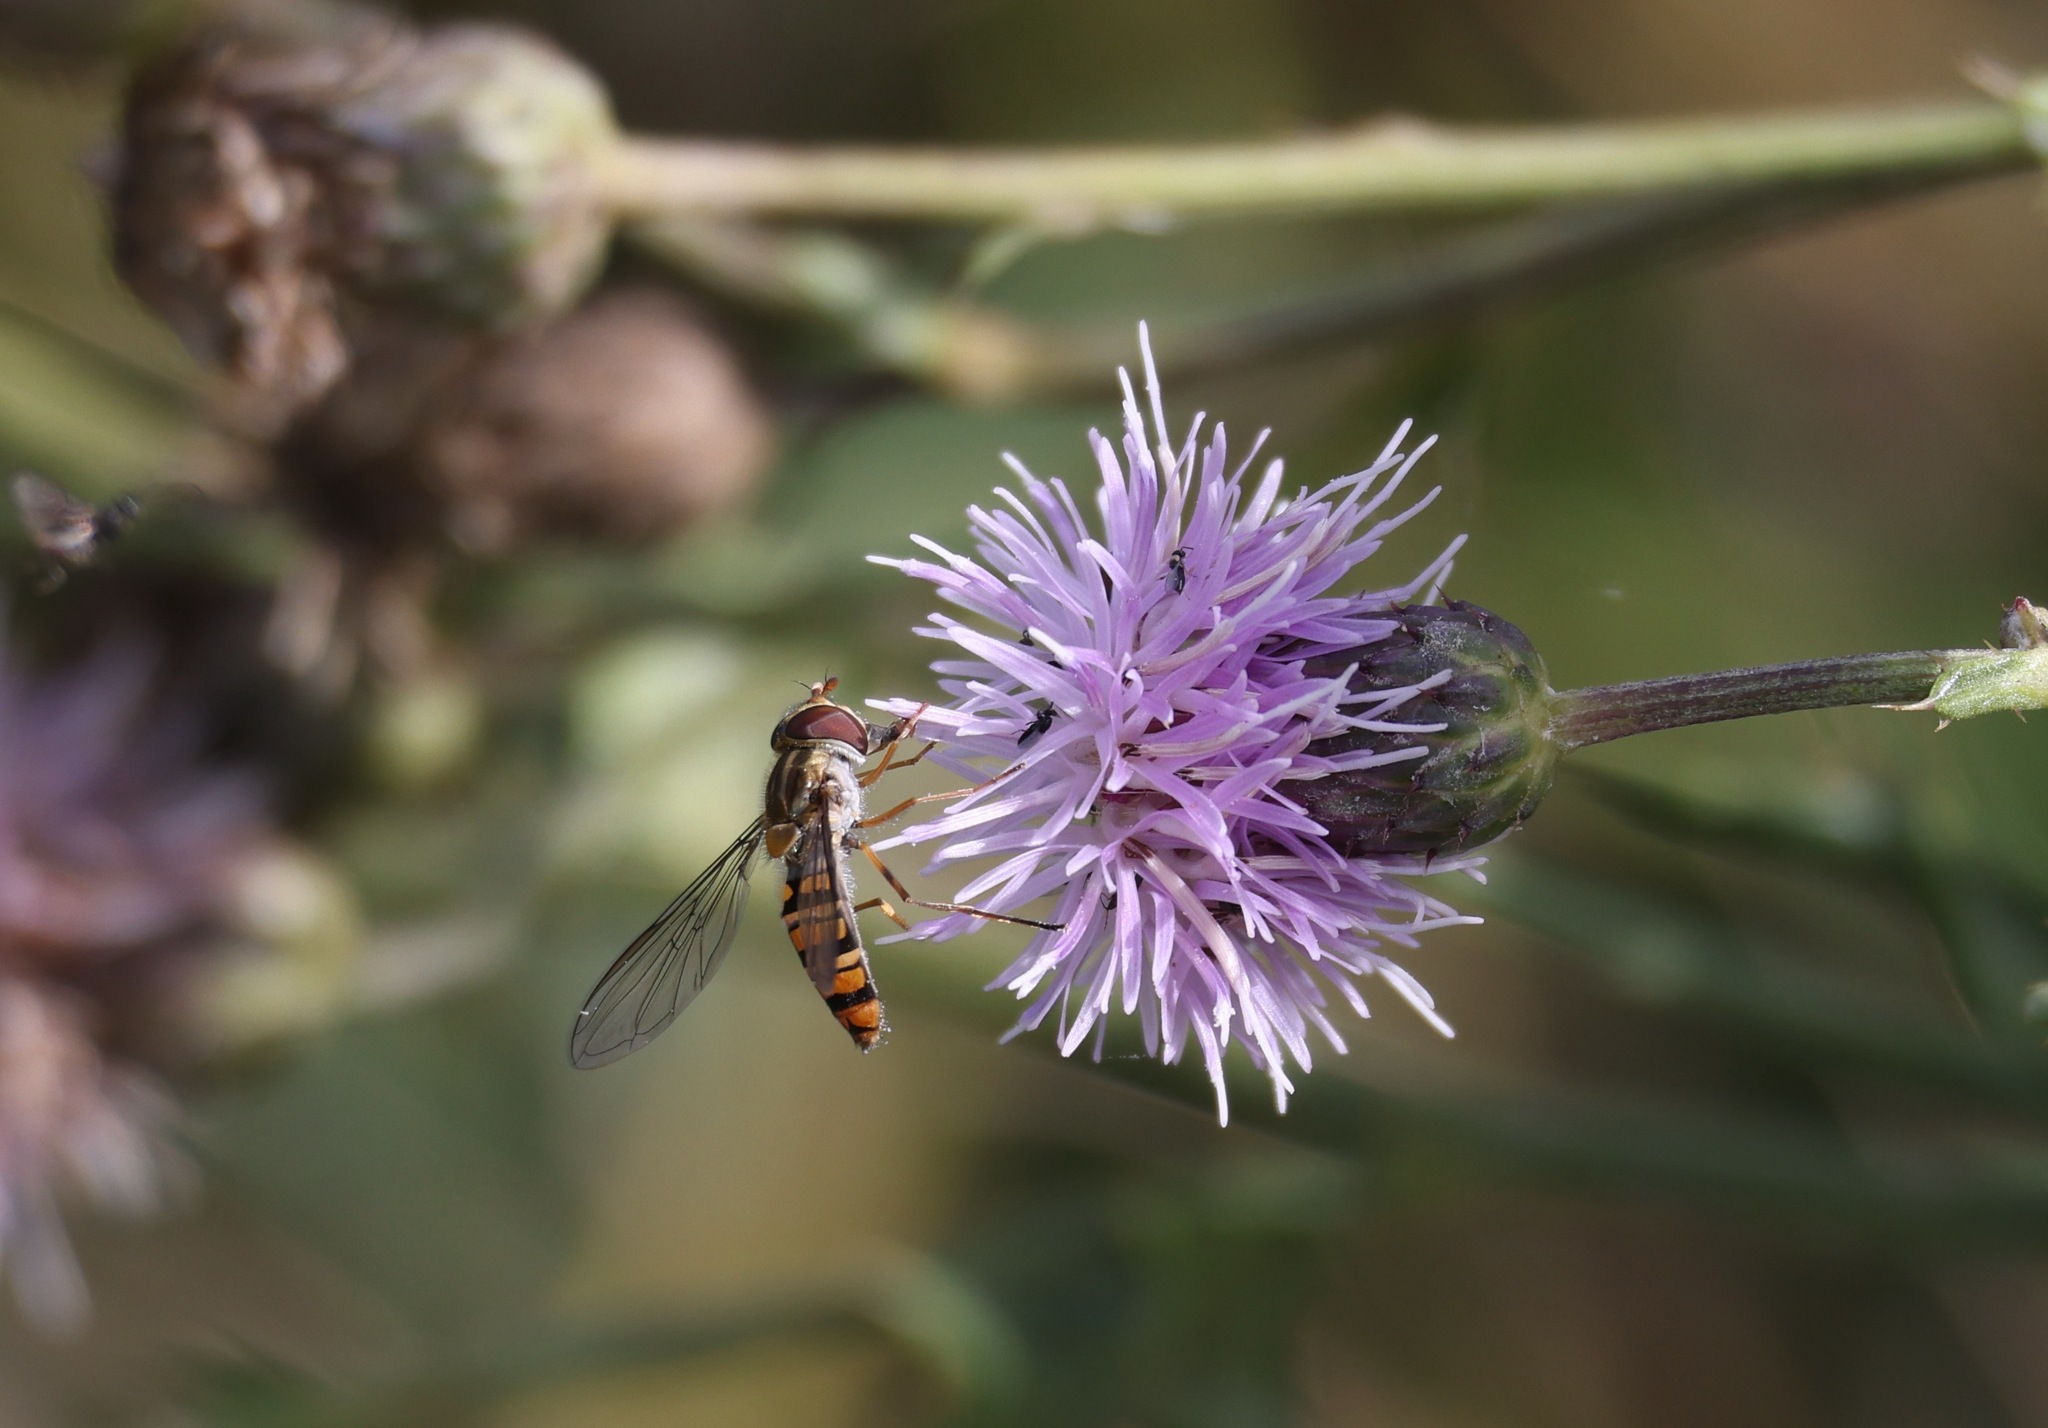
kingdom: Animalia
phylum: Arthropoda
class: Insecta
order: Diptera
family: Syrphidae
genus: Episyrphus
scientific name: Episyrphus balteatus
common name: Marmalade hoverfly
